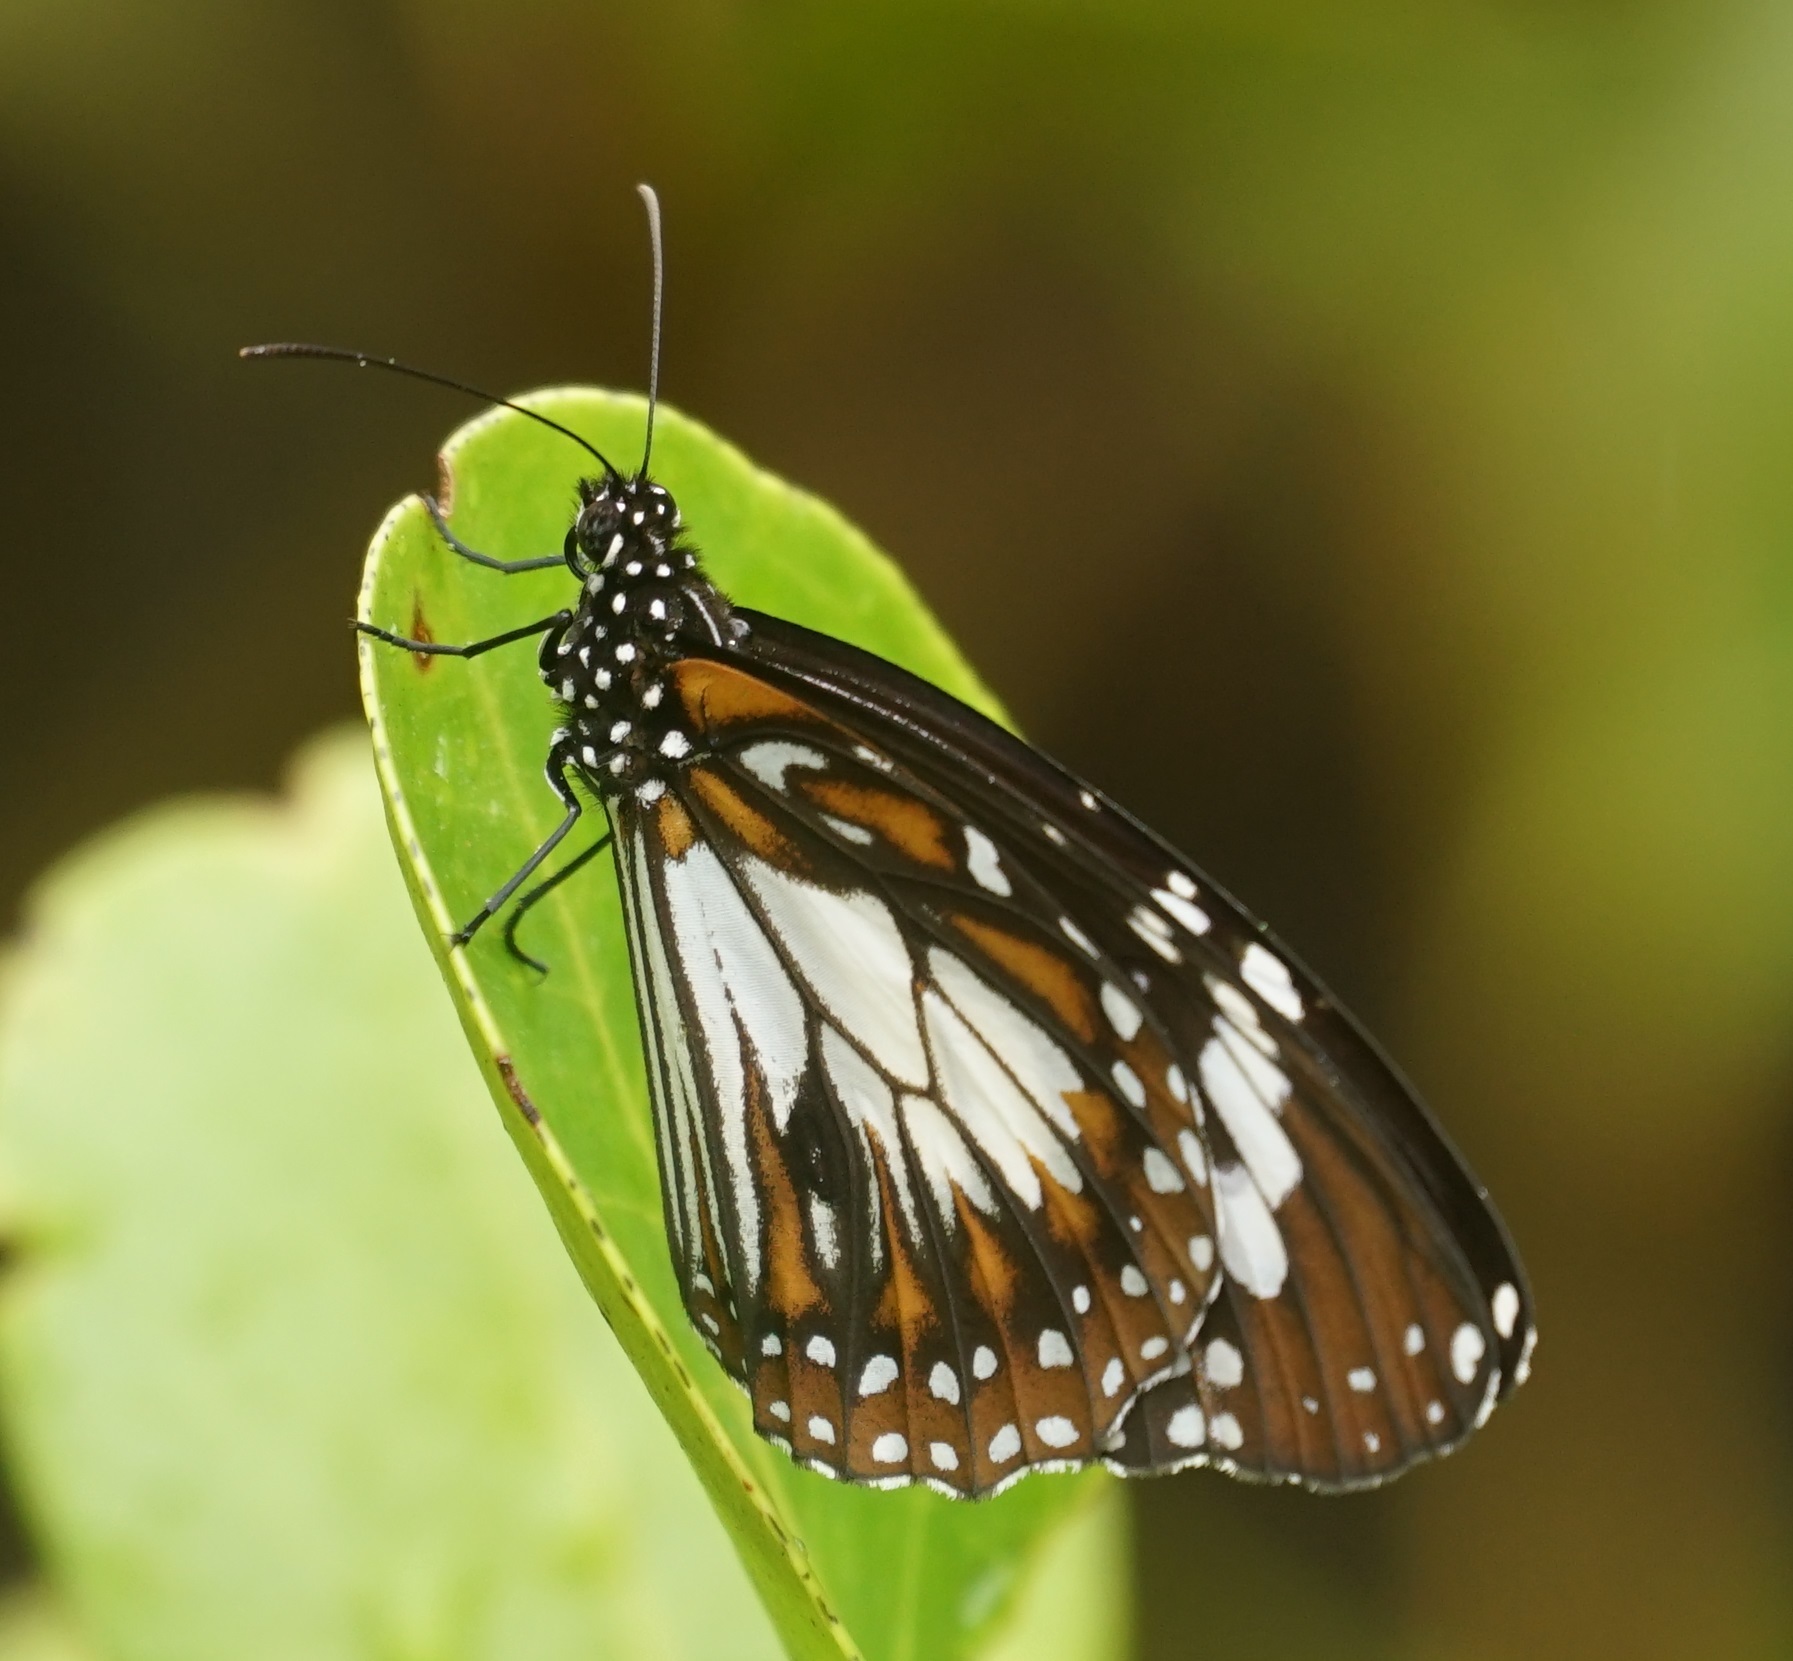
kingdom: Animalia
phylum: Arthropoda
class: Insecta
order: Lepidoptera
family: Nymphalidae
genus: Danaus
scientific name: Danaus affinis
